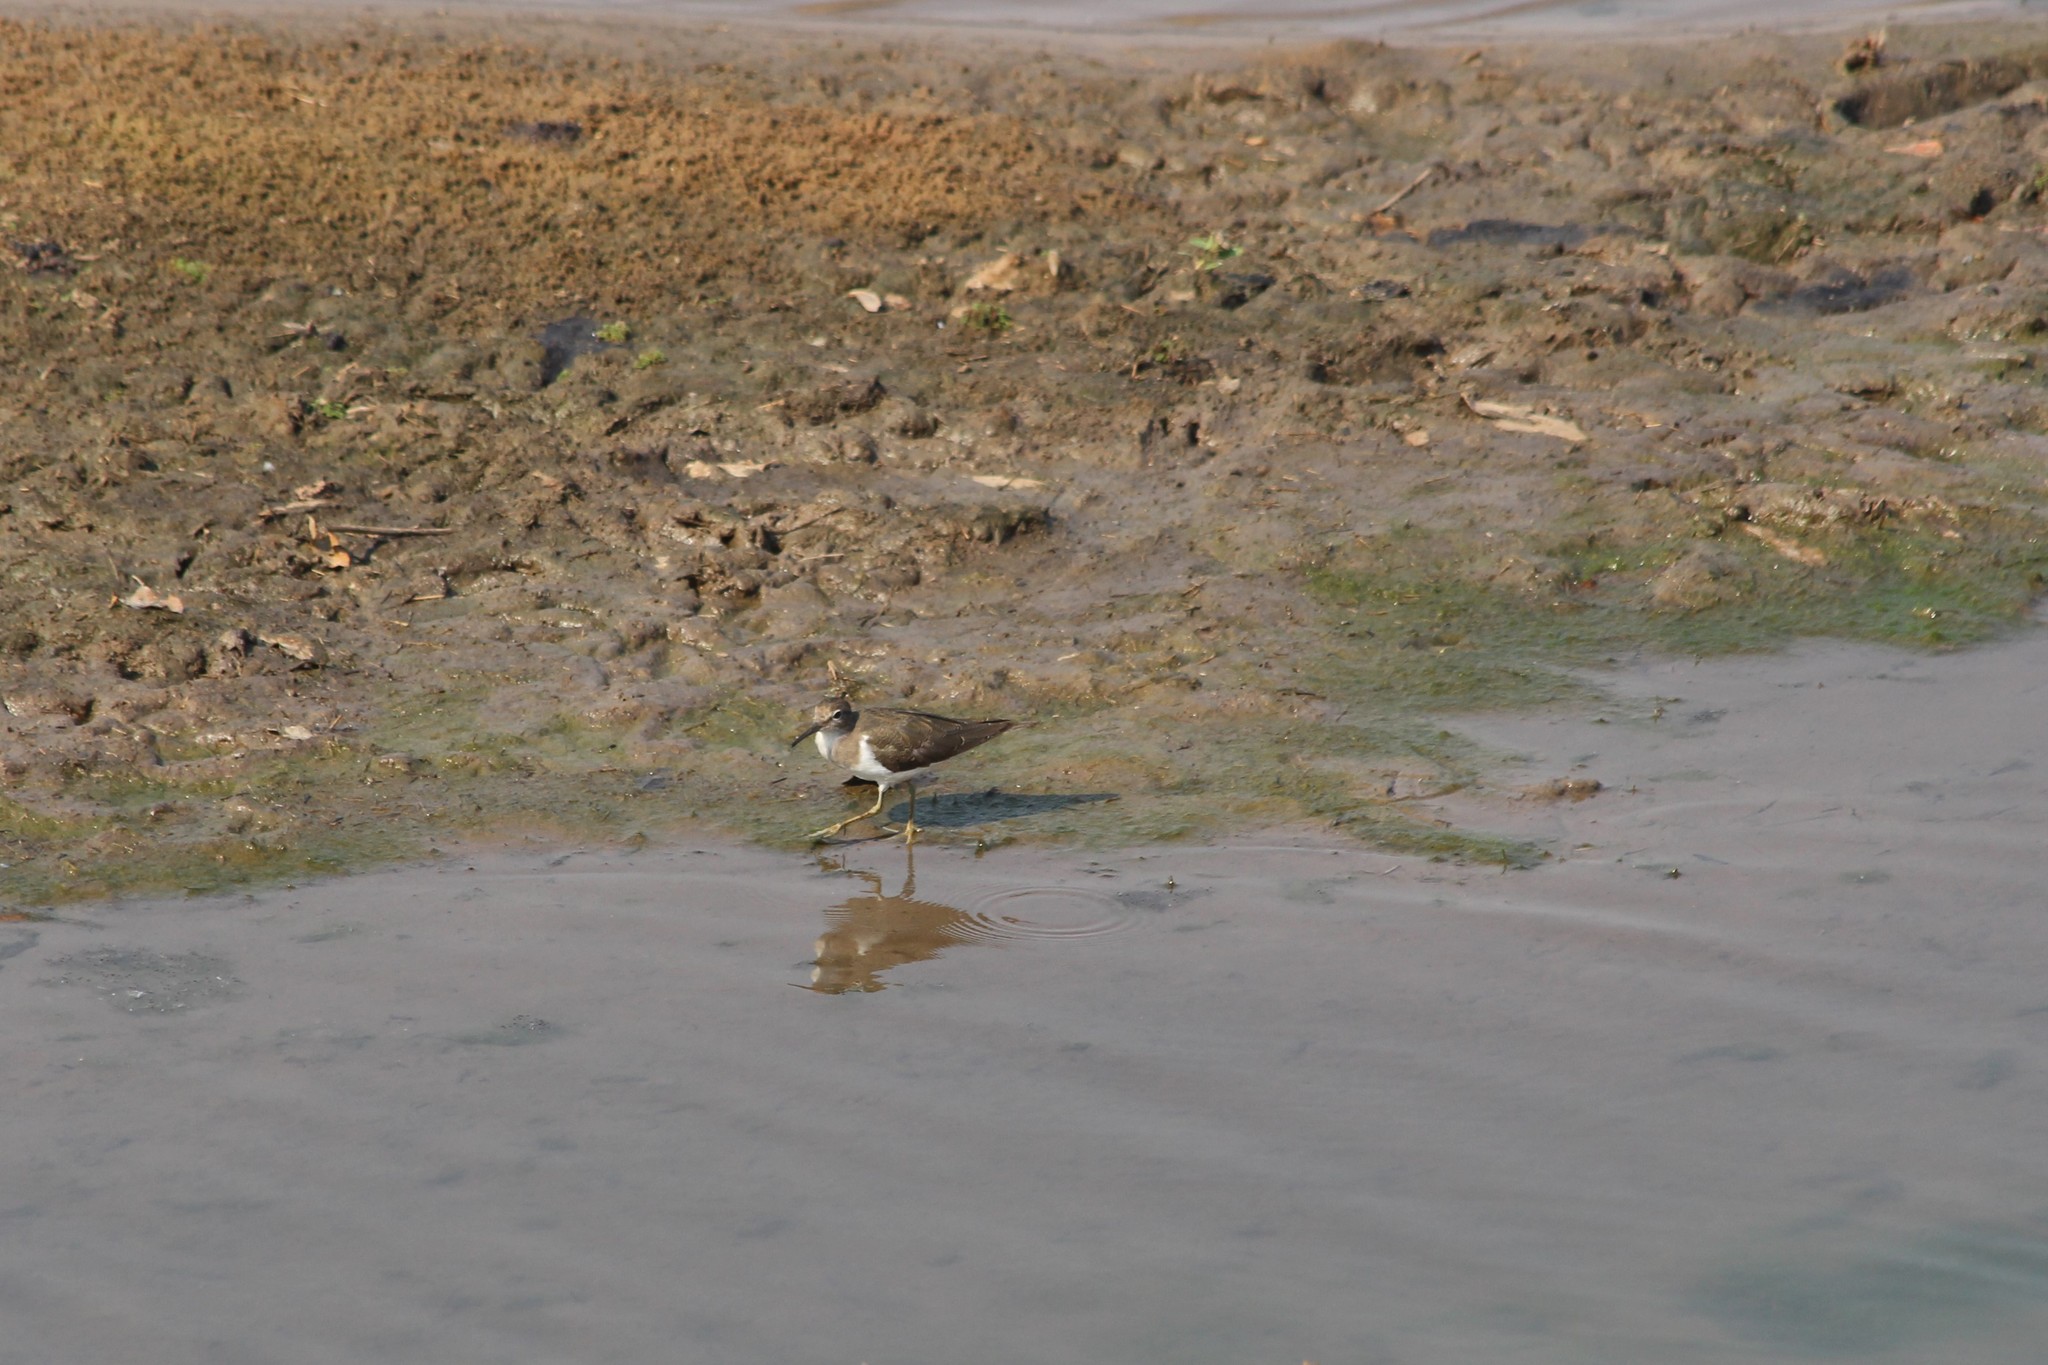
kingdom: Animalia
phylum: Chordata
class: Aves
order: Charadriiformes
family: Scolopacidae
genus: Actitis
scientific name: Actitis hypoleucos
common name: Common sandpiper
